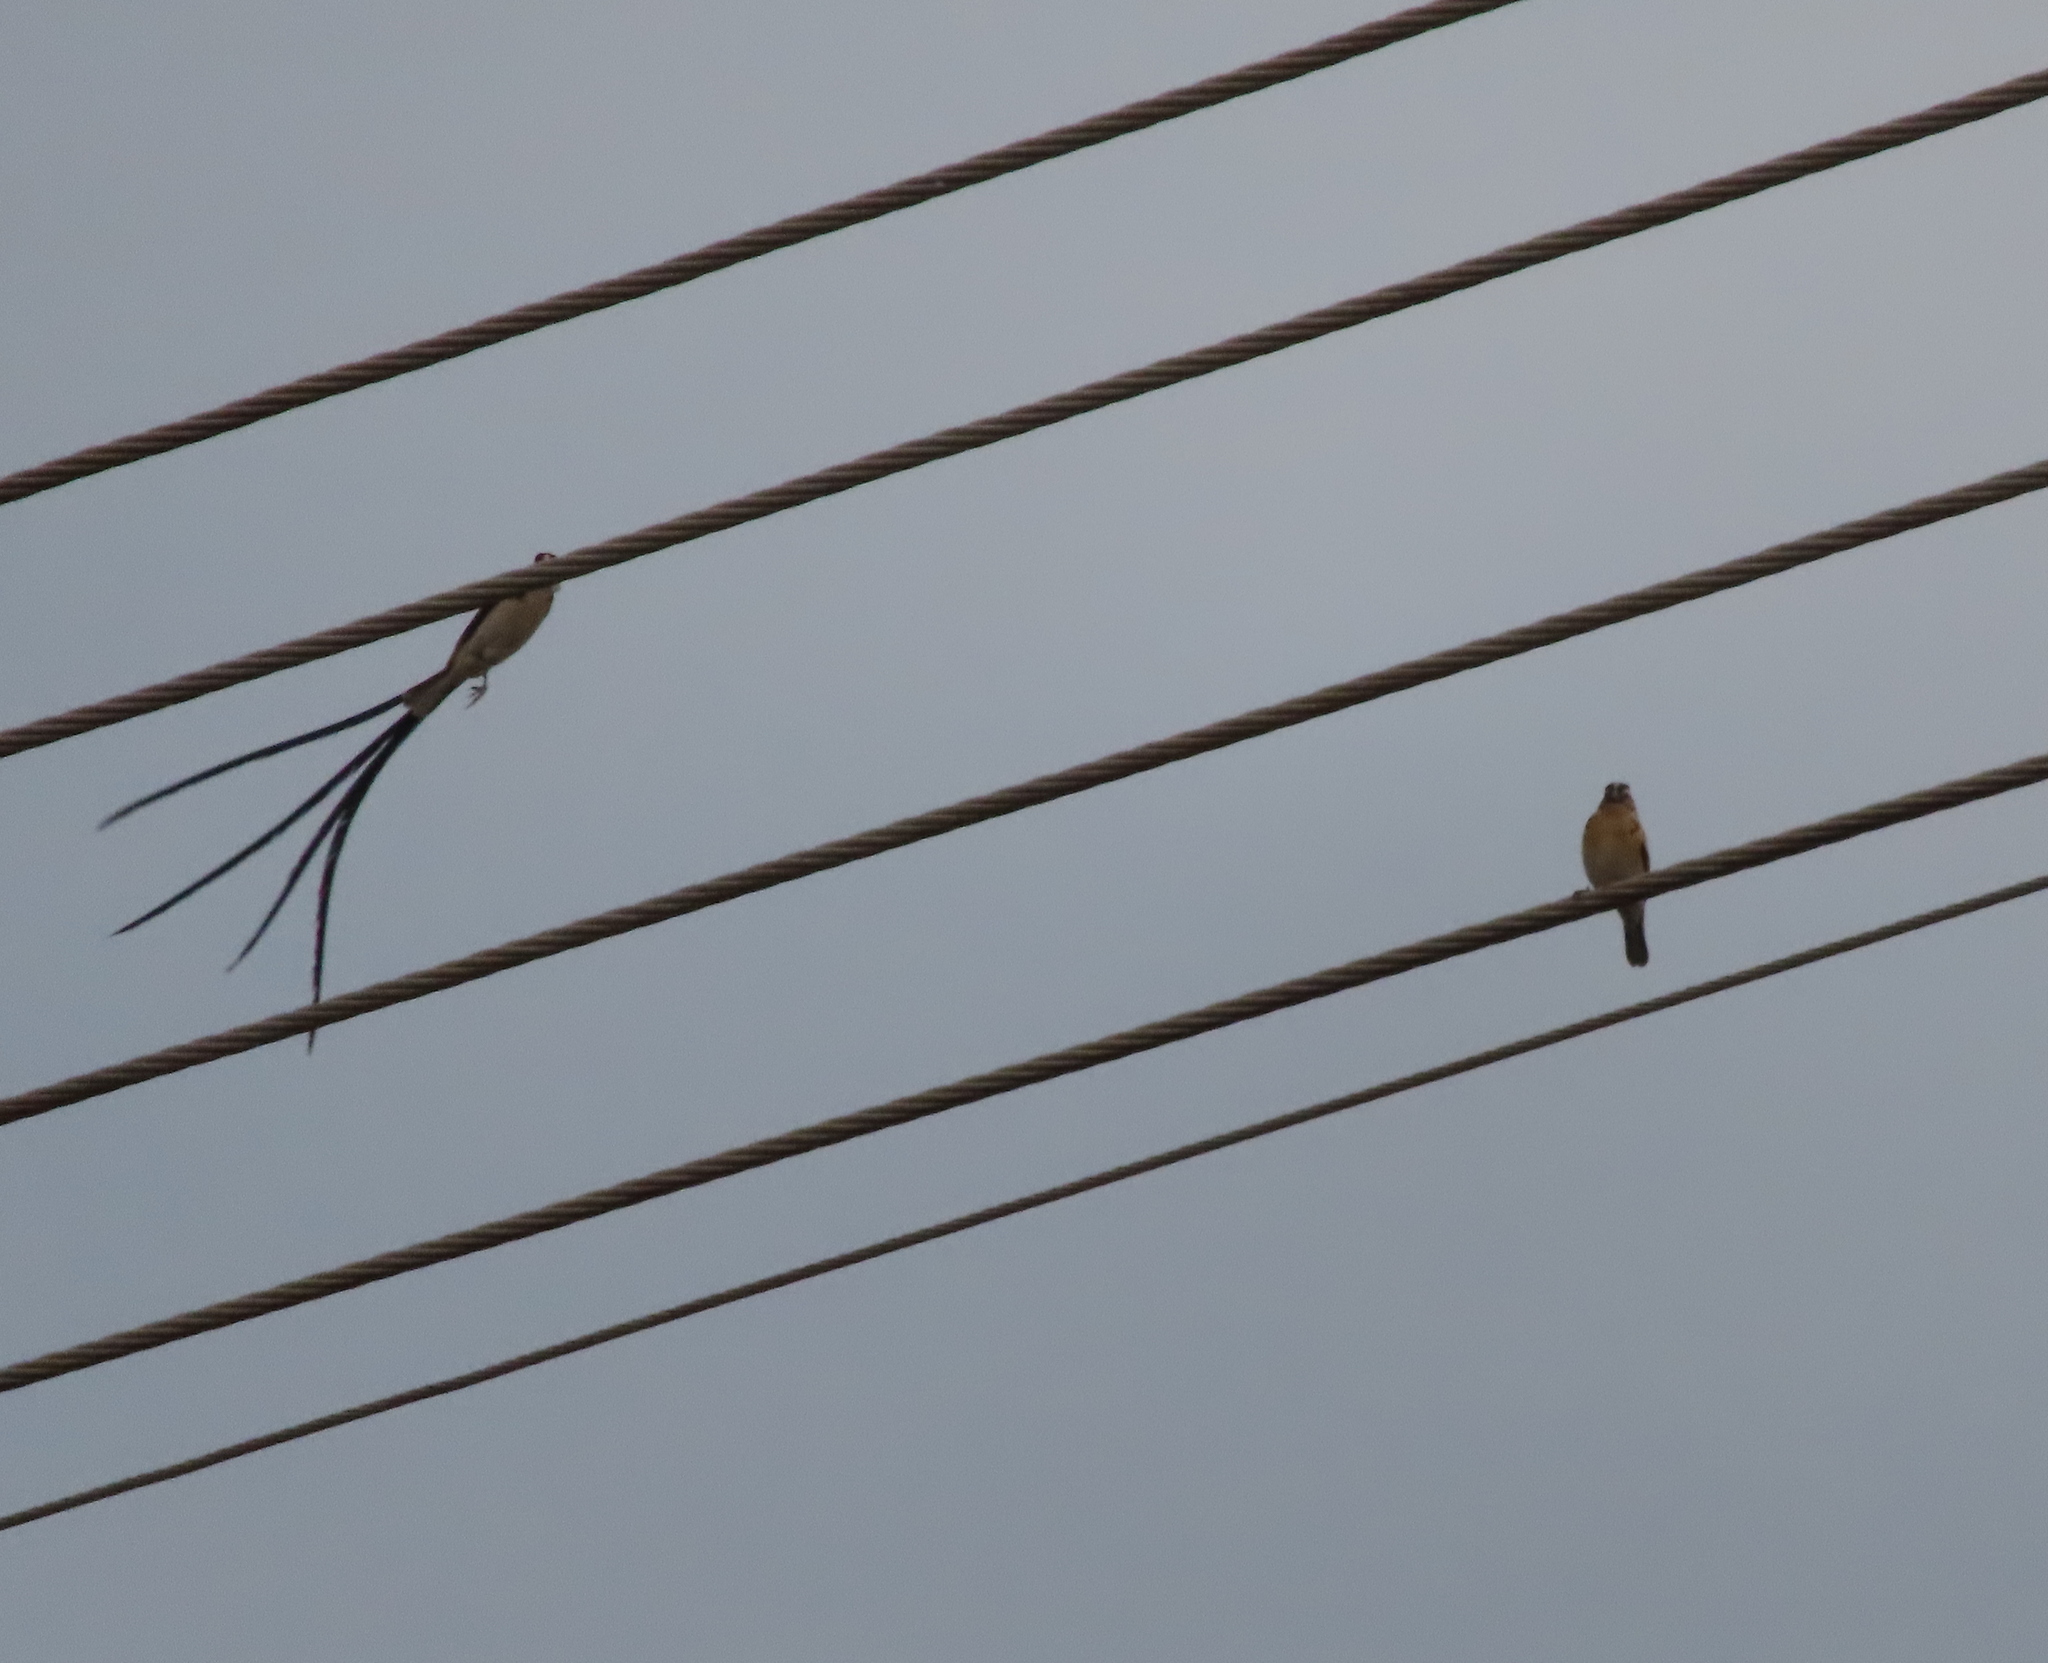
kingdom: Animalia
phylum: Chordata
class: Aves
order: Passeriformes
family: Viduidae
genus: Vidua
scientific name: Vidua macroura
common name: Pin-tailed whydah
